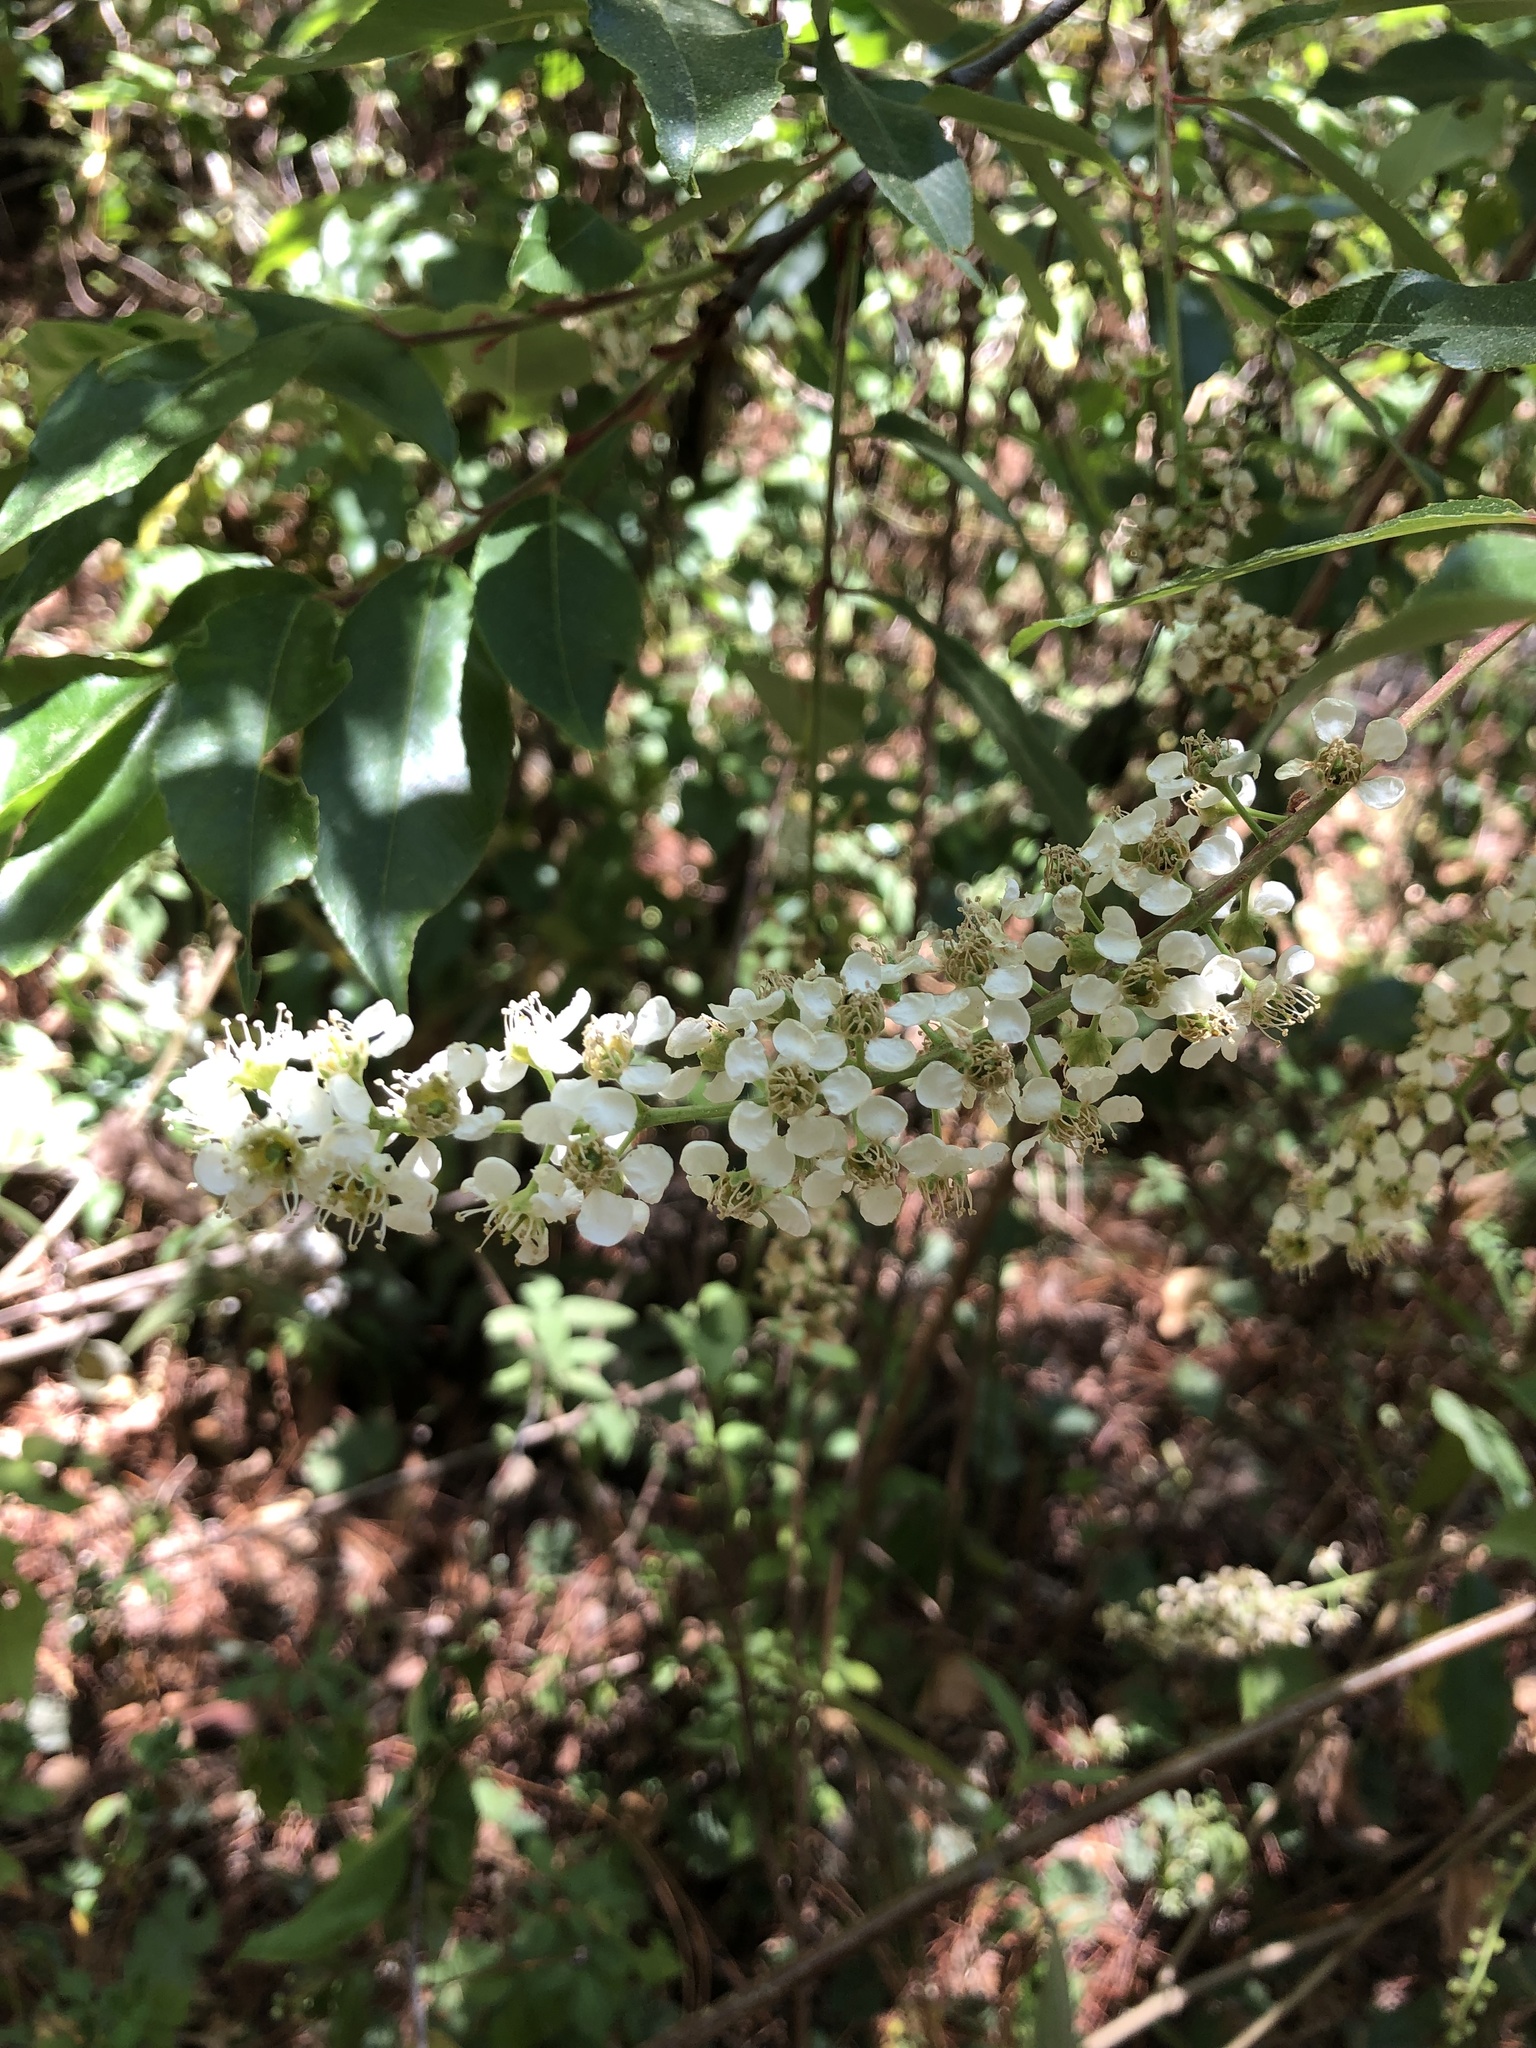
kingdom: Plantae
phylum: Tracheophyta
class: Magnoliopsida
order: Rosales
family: Rosaceae
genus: Prunus
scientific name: Prunus serotina
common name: Black cherry
